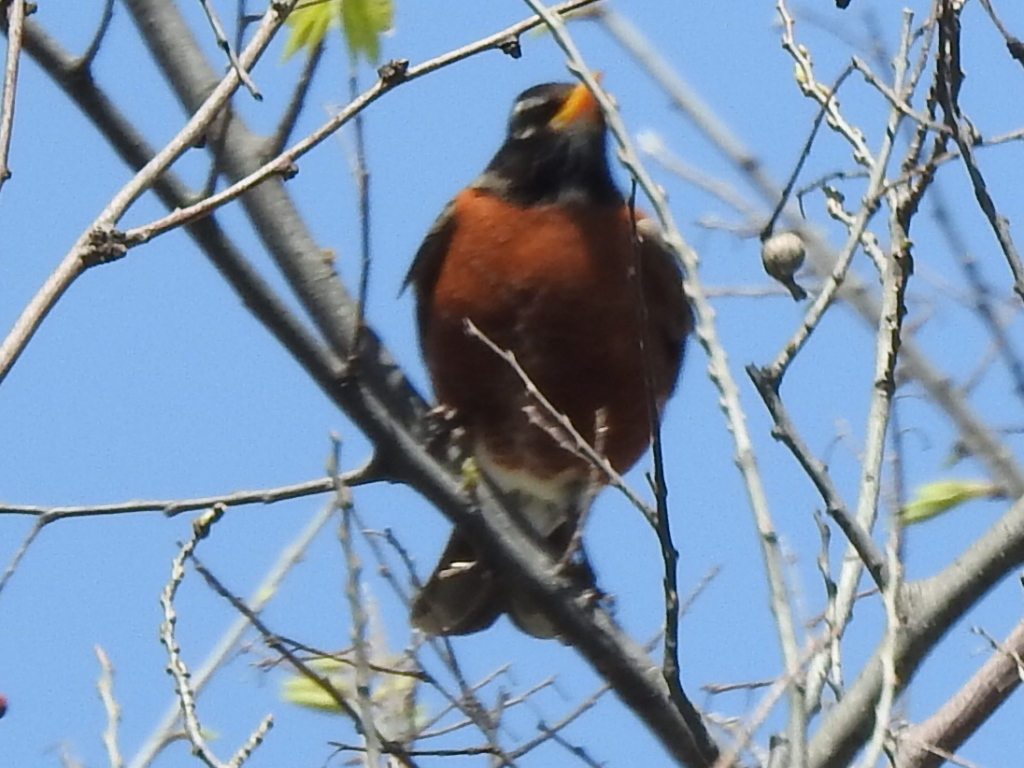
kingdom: Animalia
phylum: Chordata
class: Aves
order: Passeriformes
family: Turdidae
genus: Turdus
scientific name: Turdus migratorius
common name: American robin
